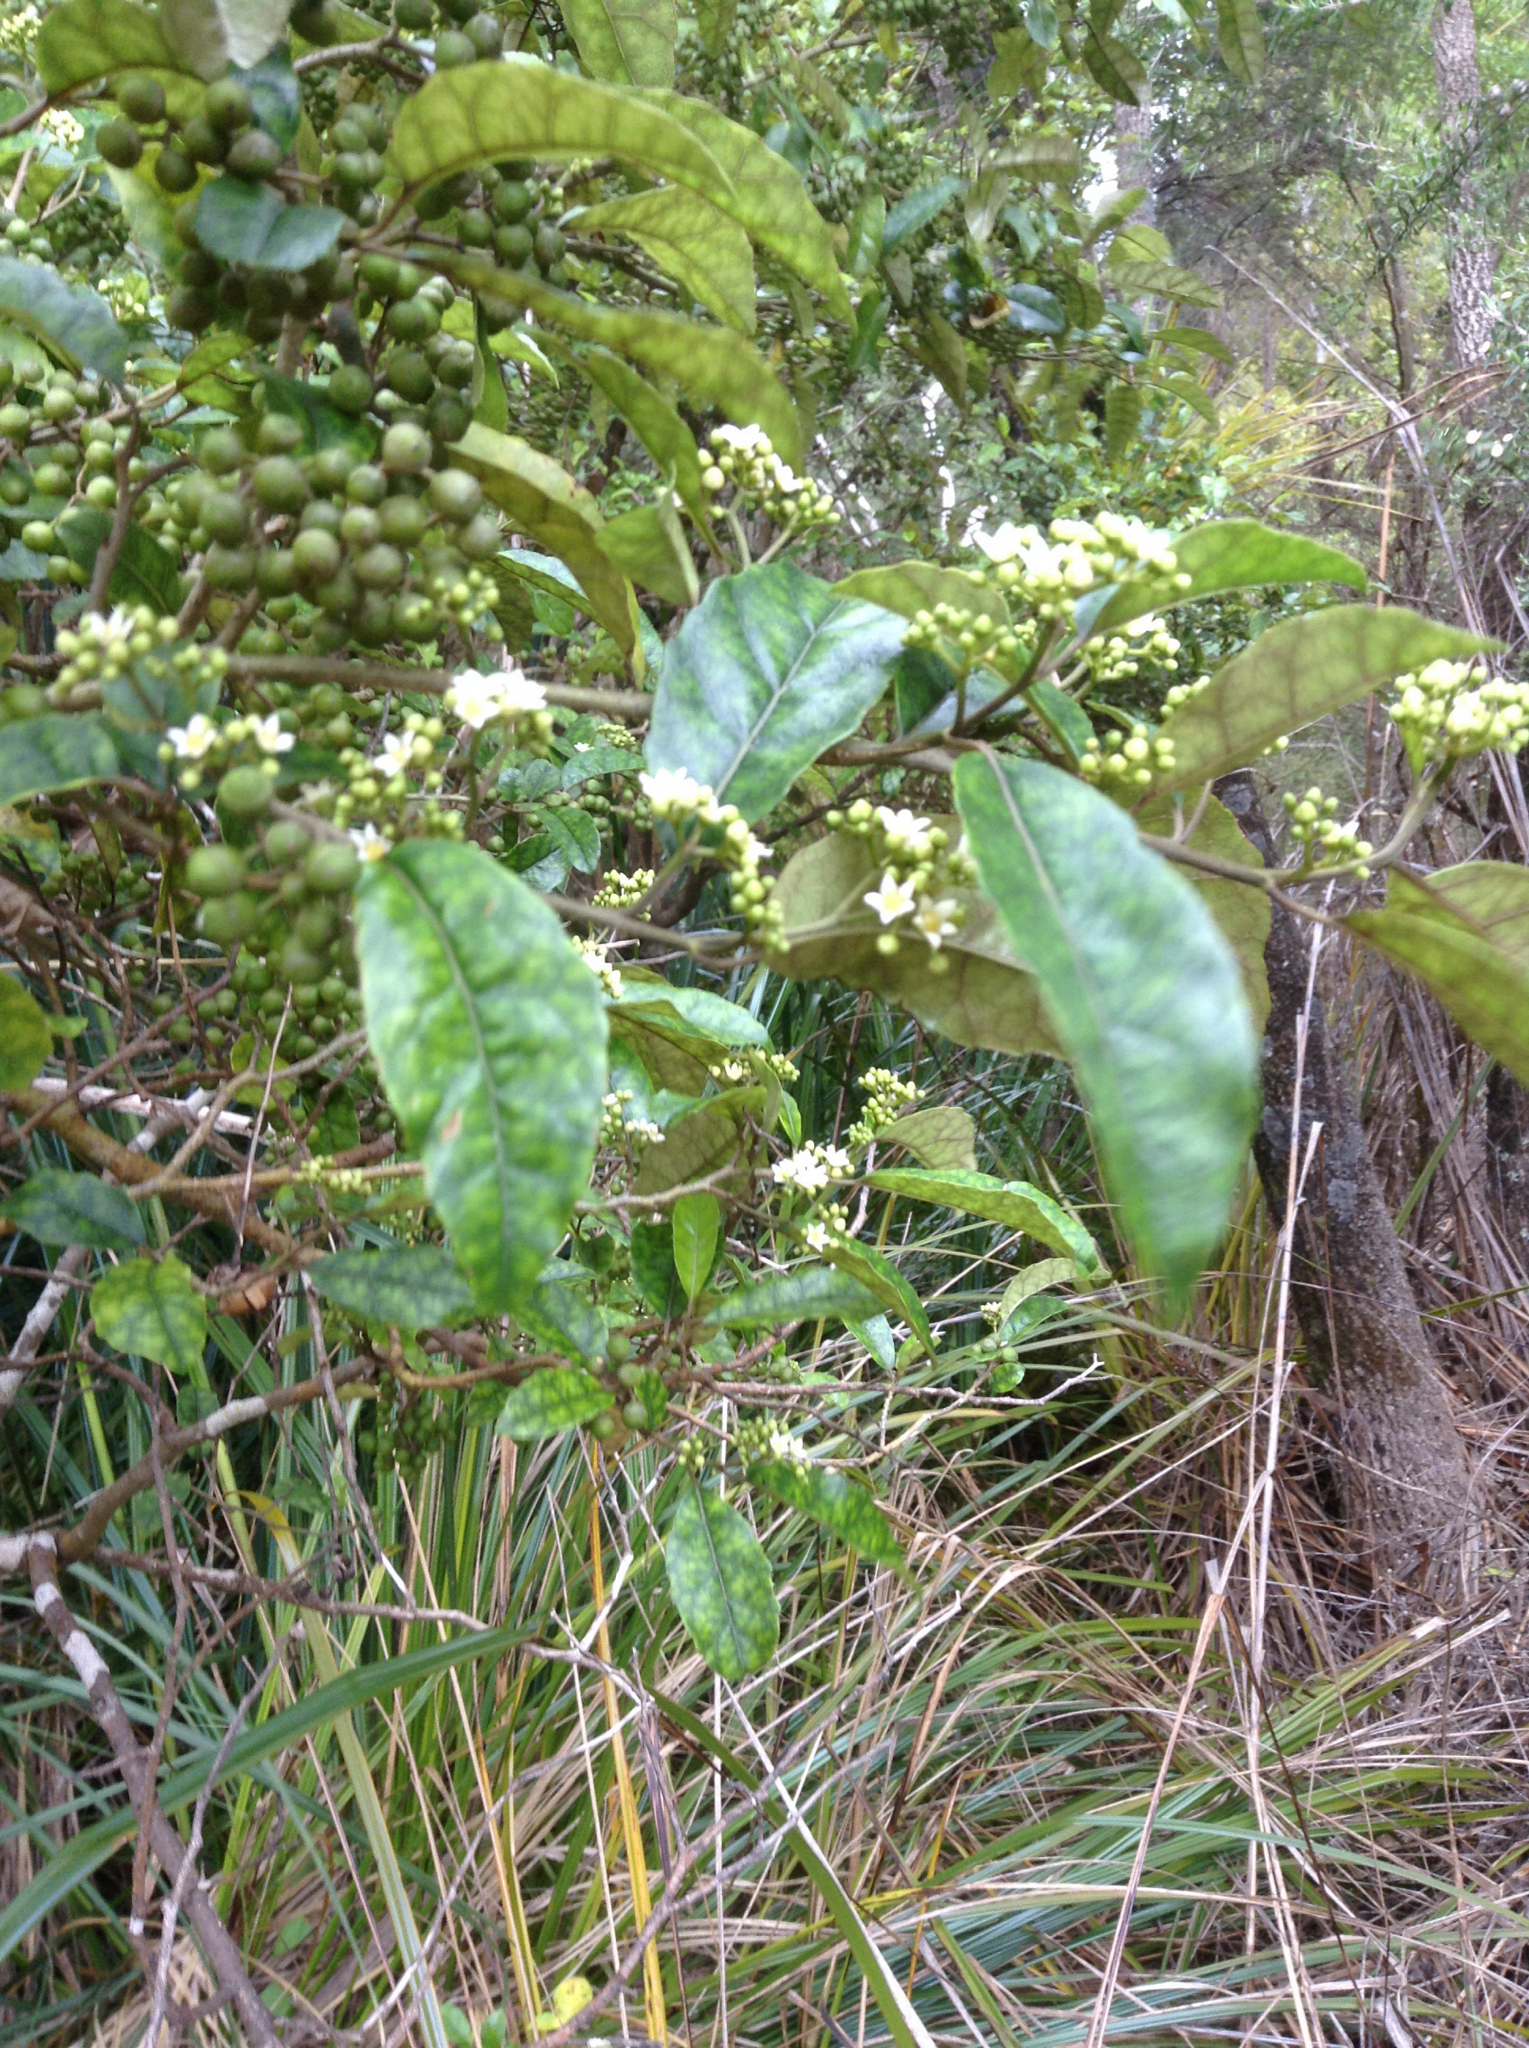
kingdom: Plantae
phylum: Tracheophyta
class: Magnoliopsida
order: Asterales
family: Rousseaceae
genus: Carpodetus
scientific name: Carpodetus serratus
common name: White mapau
